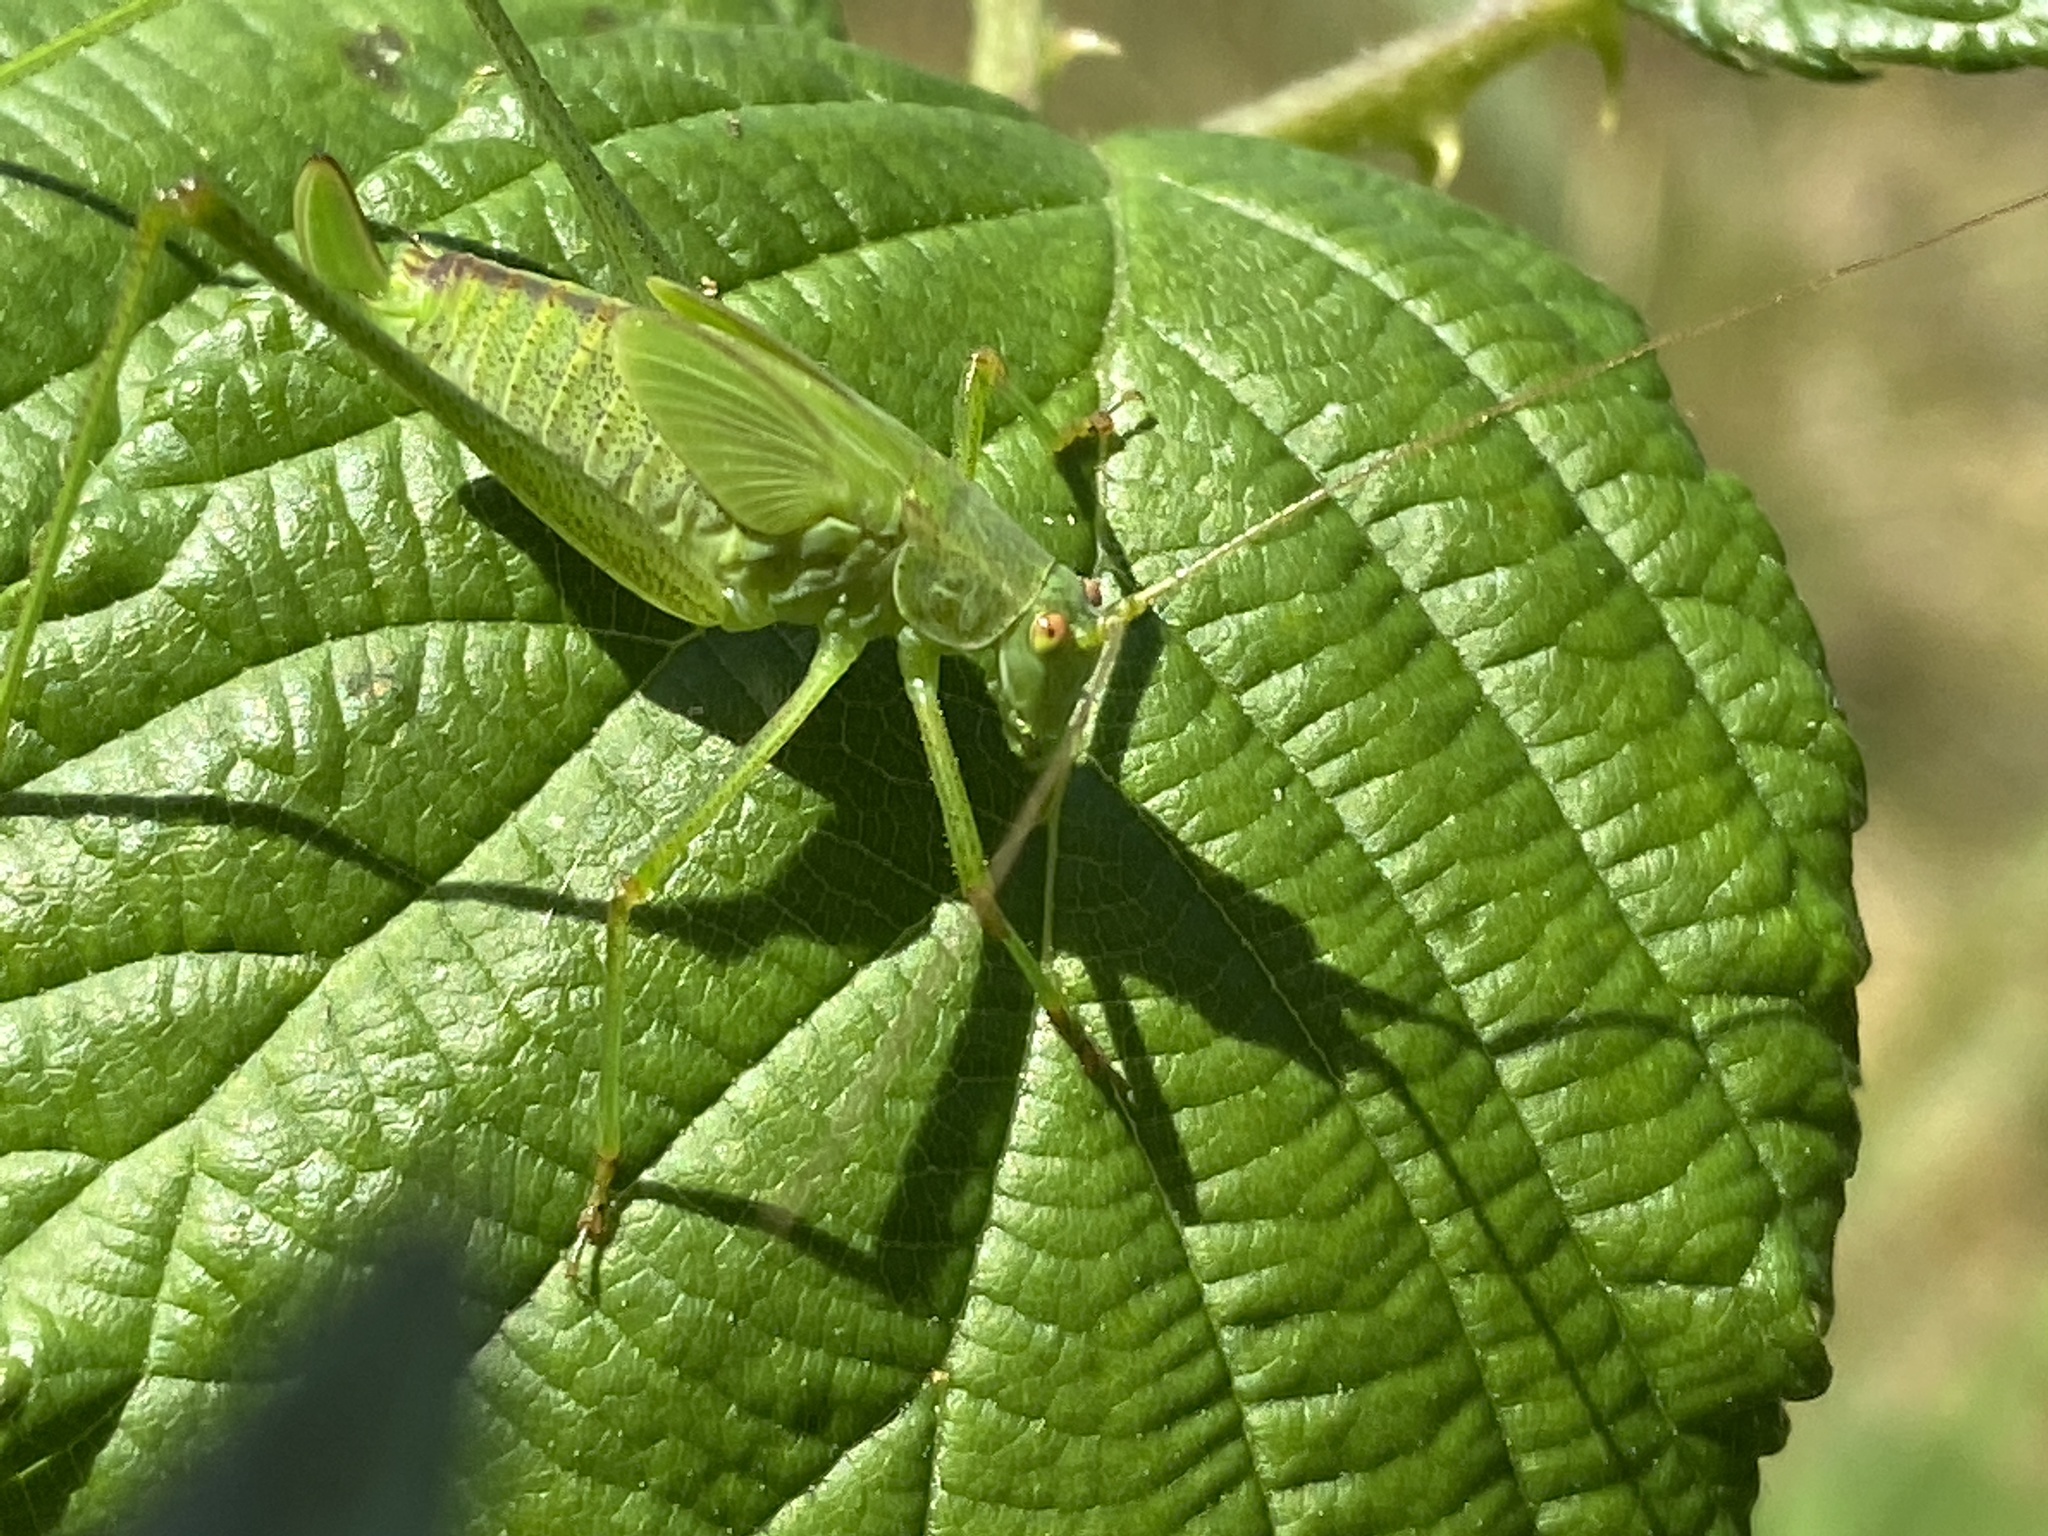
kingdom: Animalia
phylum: Arthropoda
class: Insecta
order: Orthoptera
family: Tettigoniidae
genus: Phaneroptera
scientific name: Phaneroptera falcata
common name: Sickle-bearing bush-cricket
